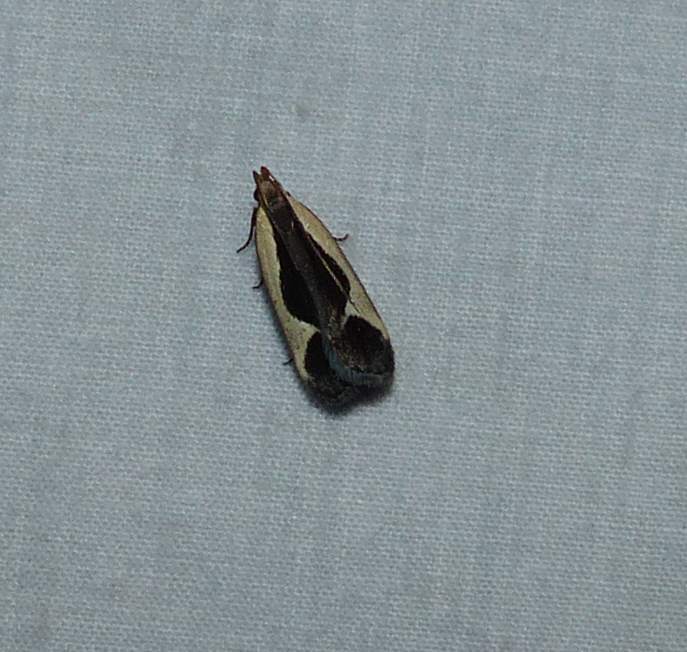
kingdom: Animalia
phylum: Arthropoda
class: Insecta
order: Lepidoptera
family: Gelechiidae
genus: Dichomeris
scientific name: Dichomeris flavocostella
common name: Cream-edged dichomeris moth
